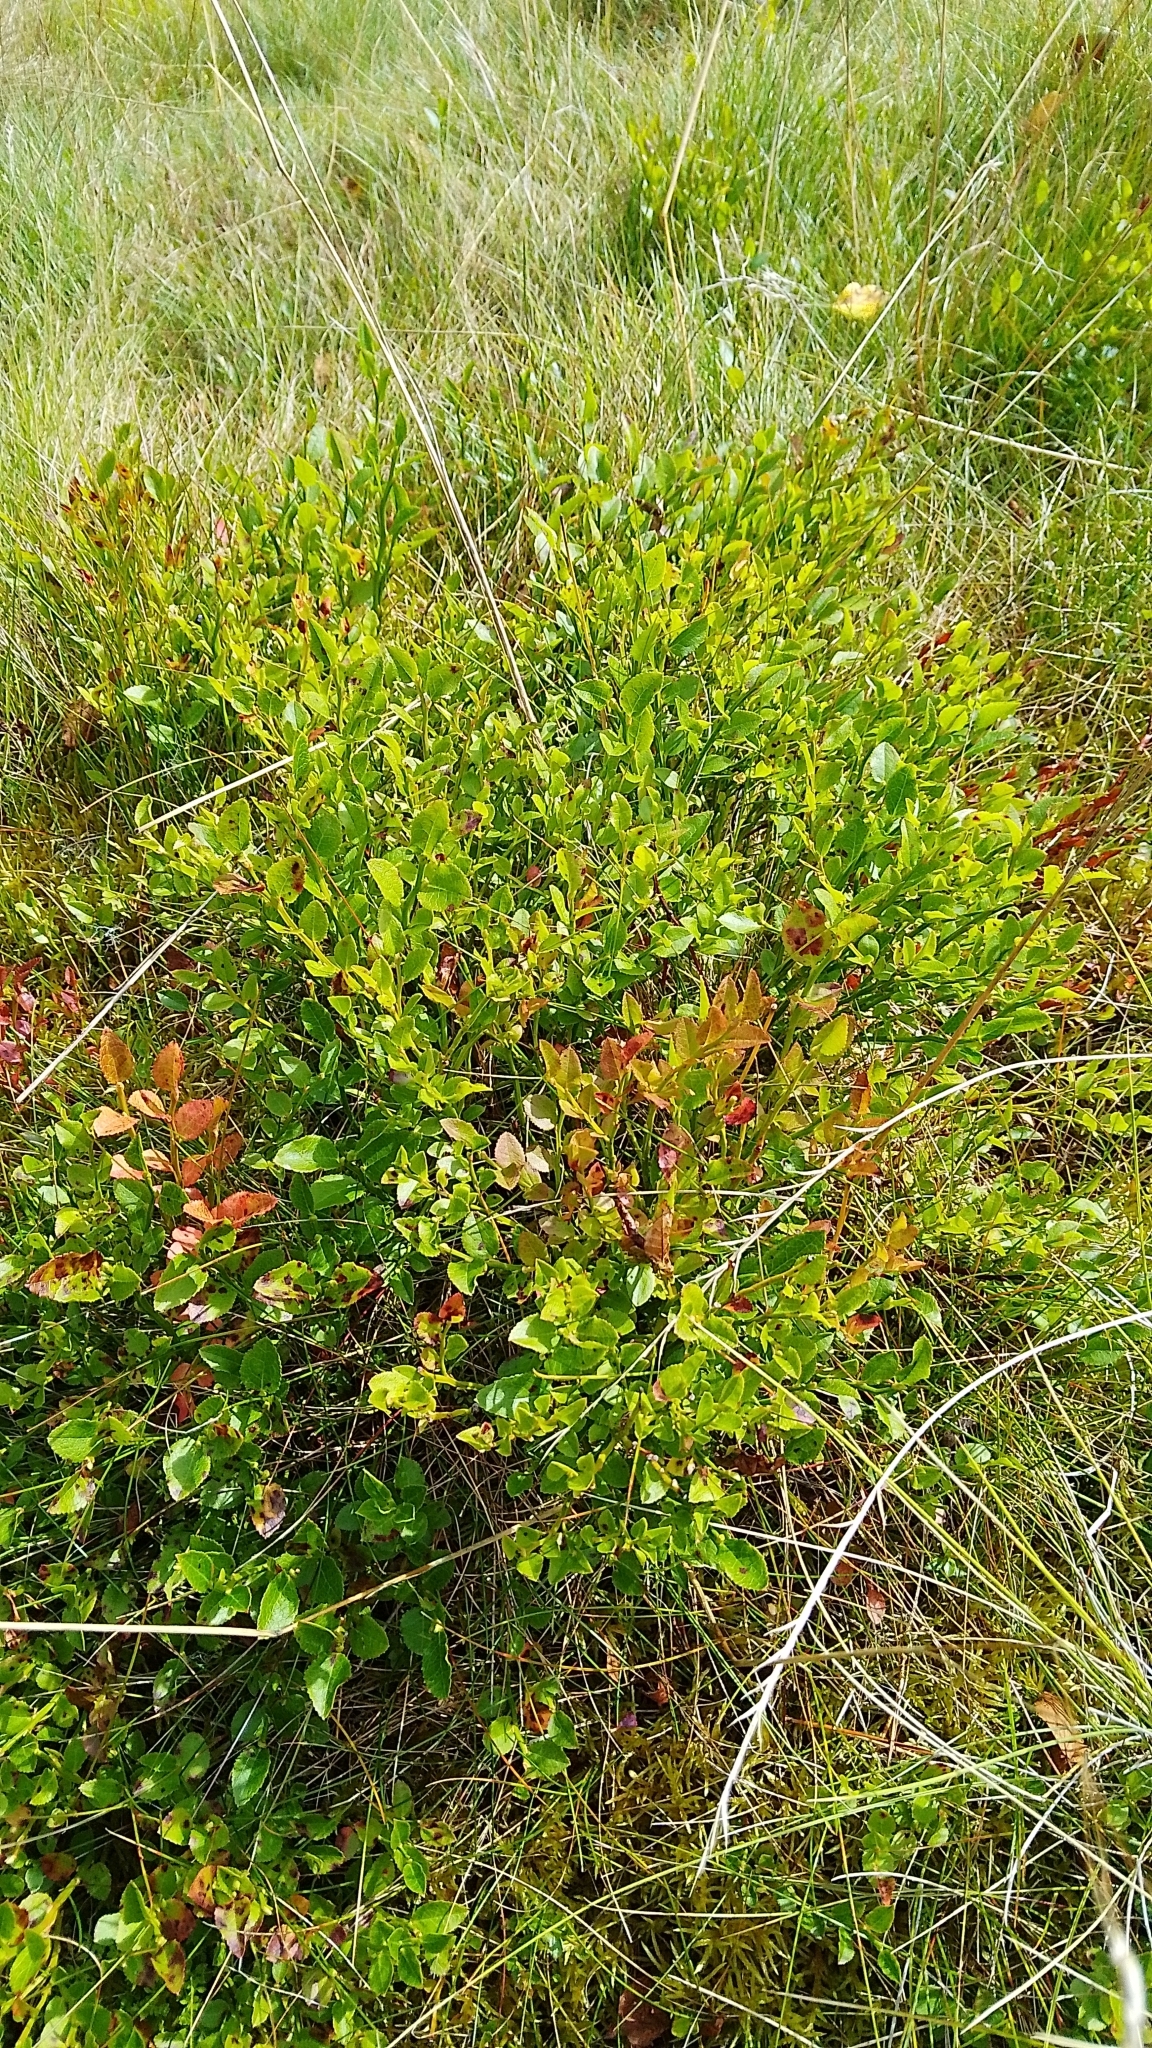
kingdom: Plantae
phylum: Tracheophyta
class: Magnoliopsida
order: Ericales
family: Ericaceae
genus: Vaccinium
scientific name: Vaccinium myrtillus
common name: Bilberry
